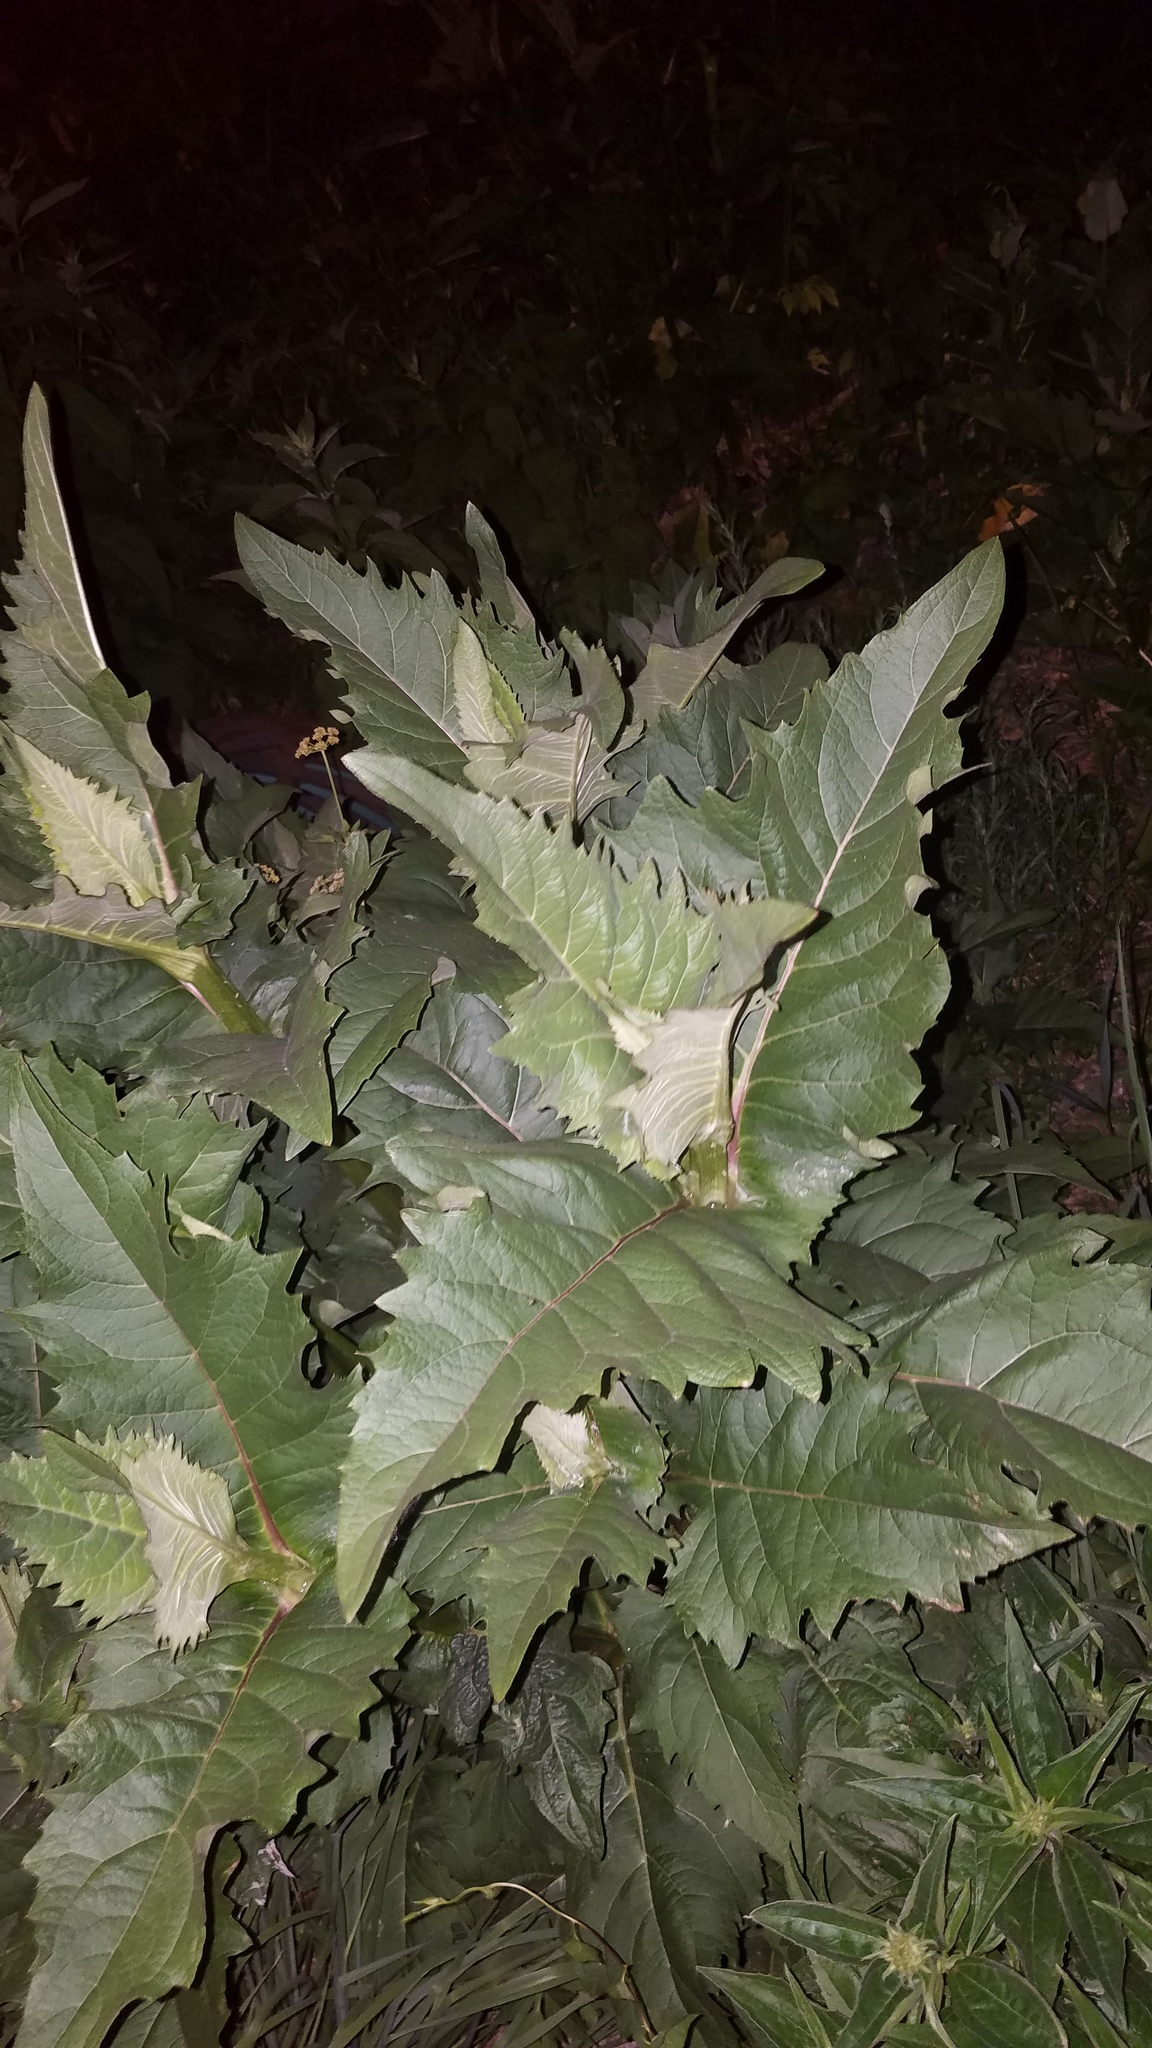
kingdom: Plantae
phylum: Tracheophyta
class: Magnoliopsida
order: Asterales
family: Asteraceae
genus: Silphium
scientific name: Silphium perfoliatum
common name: Cup-plant
